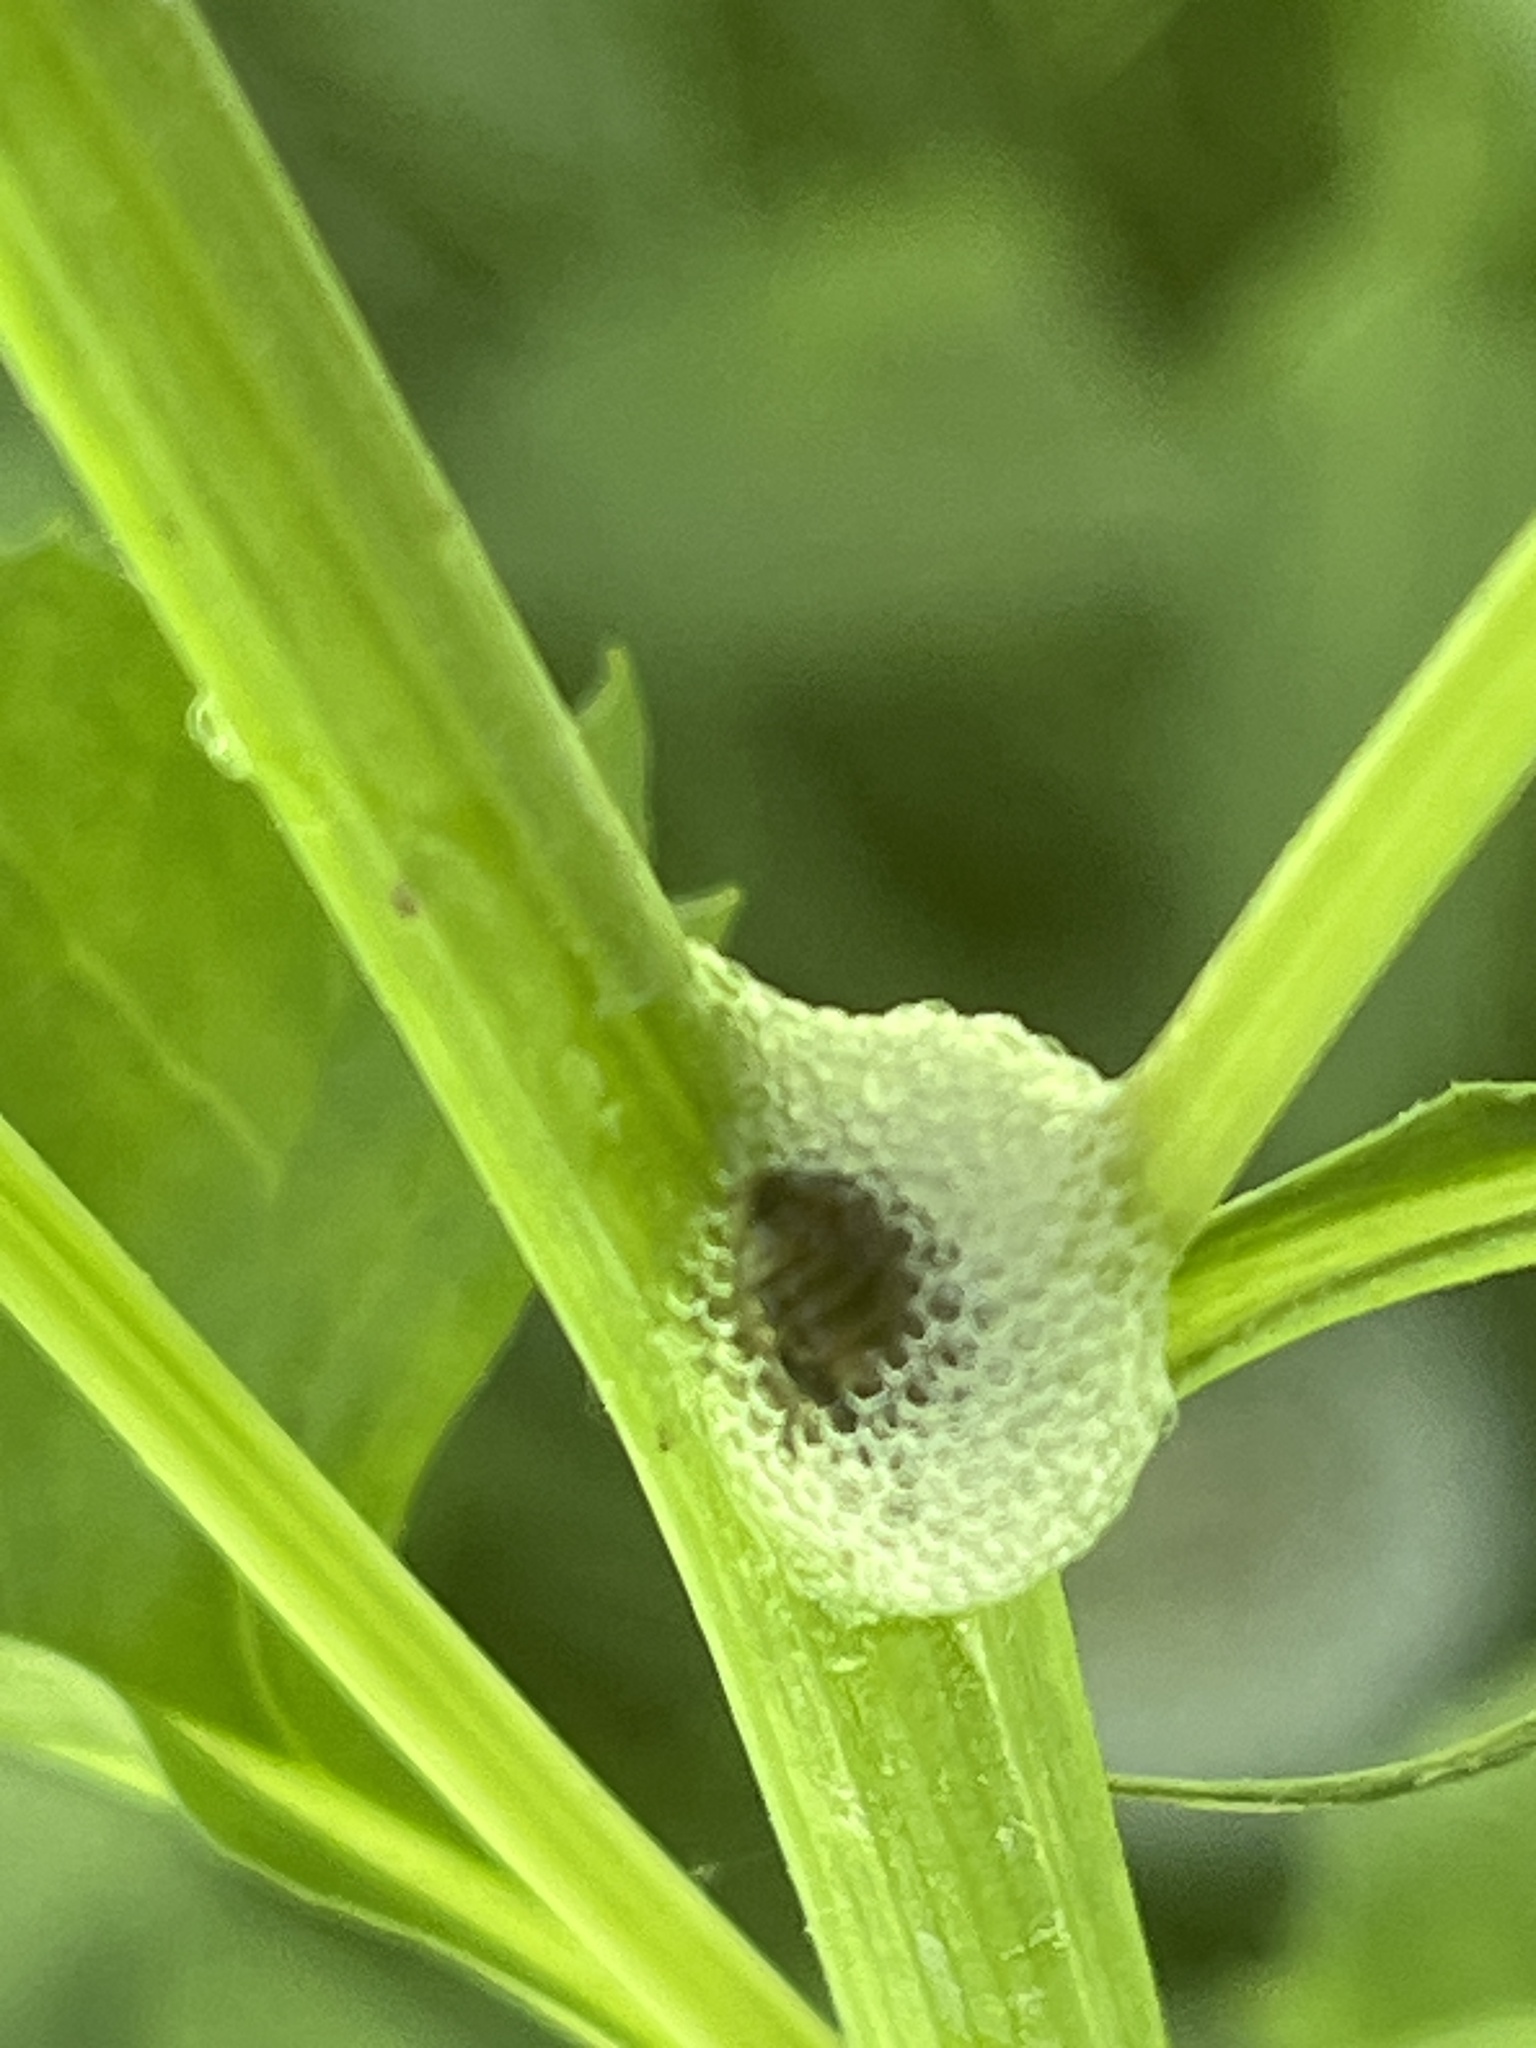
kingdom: Animalia
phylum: Arthropoda
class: Insecta
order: Hemiptera
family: Aphrophoridae
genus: Philaenus
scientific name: Philaenus spumarius
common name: Meadow spittlebug
